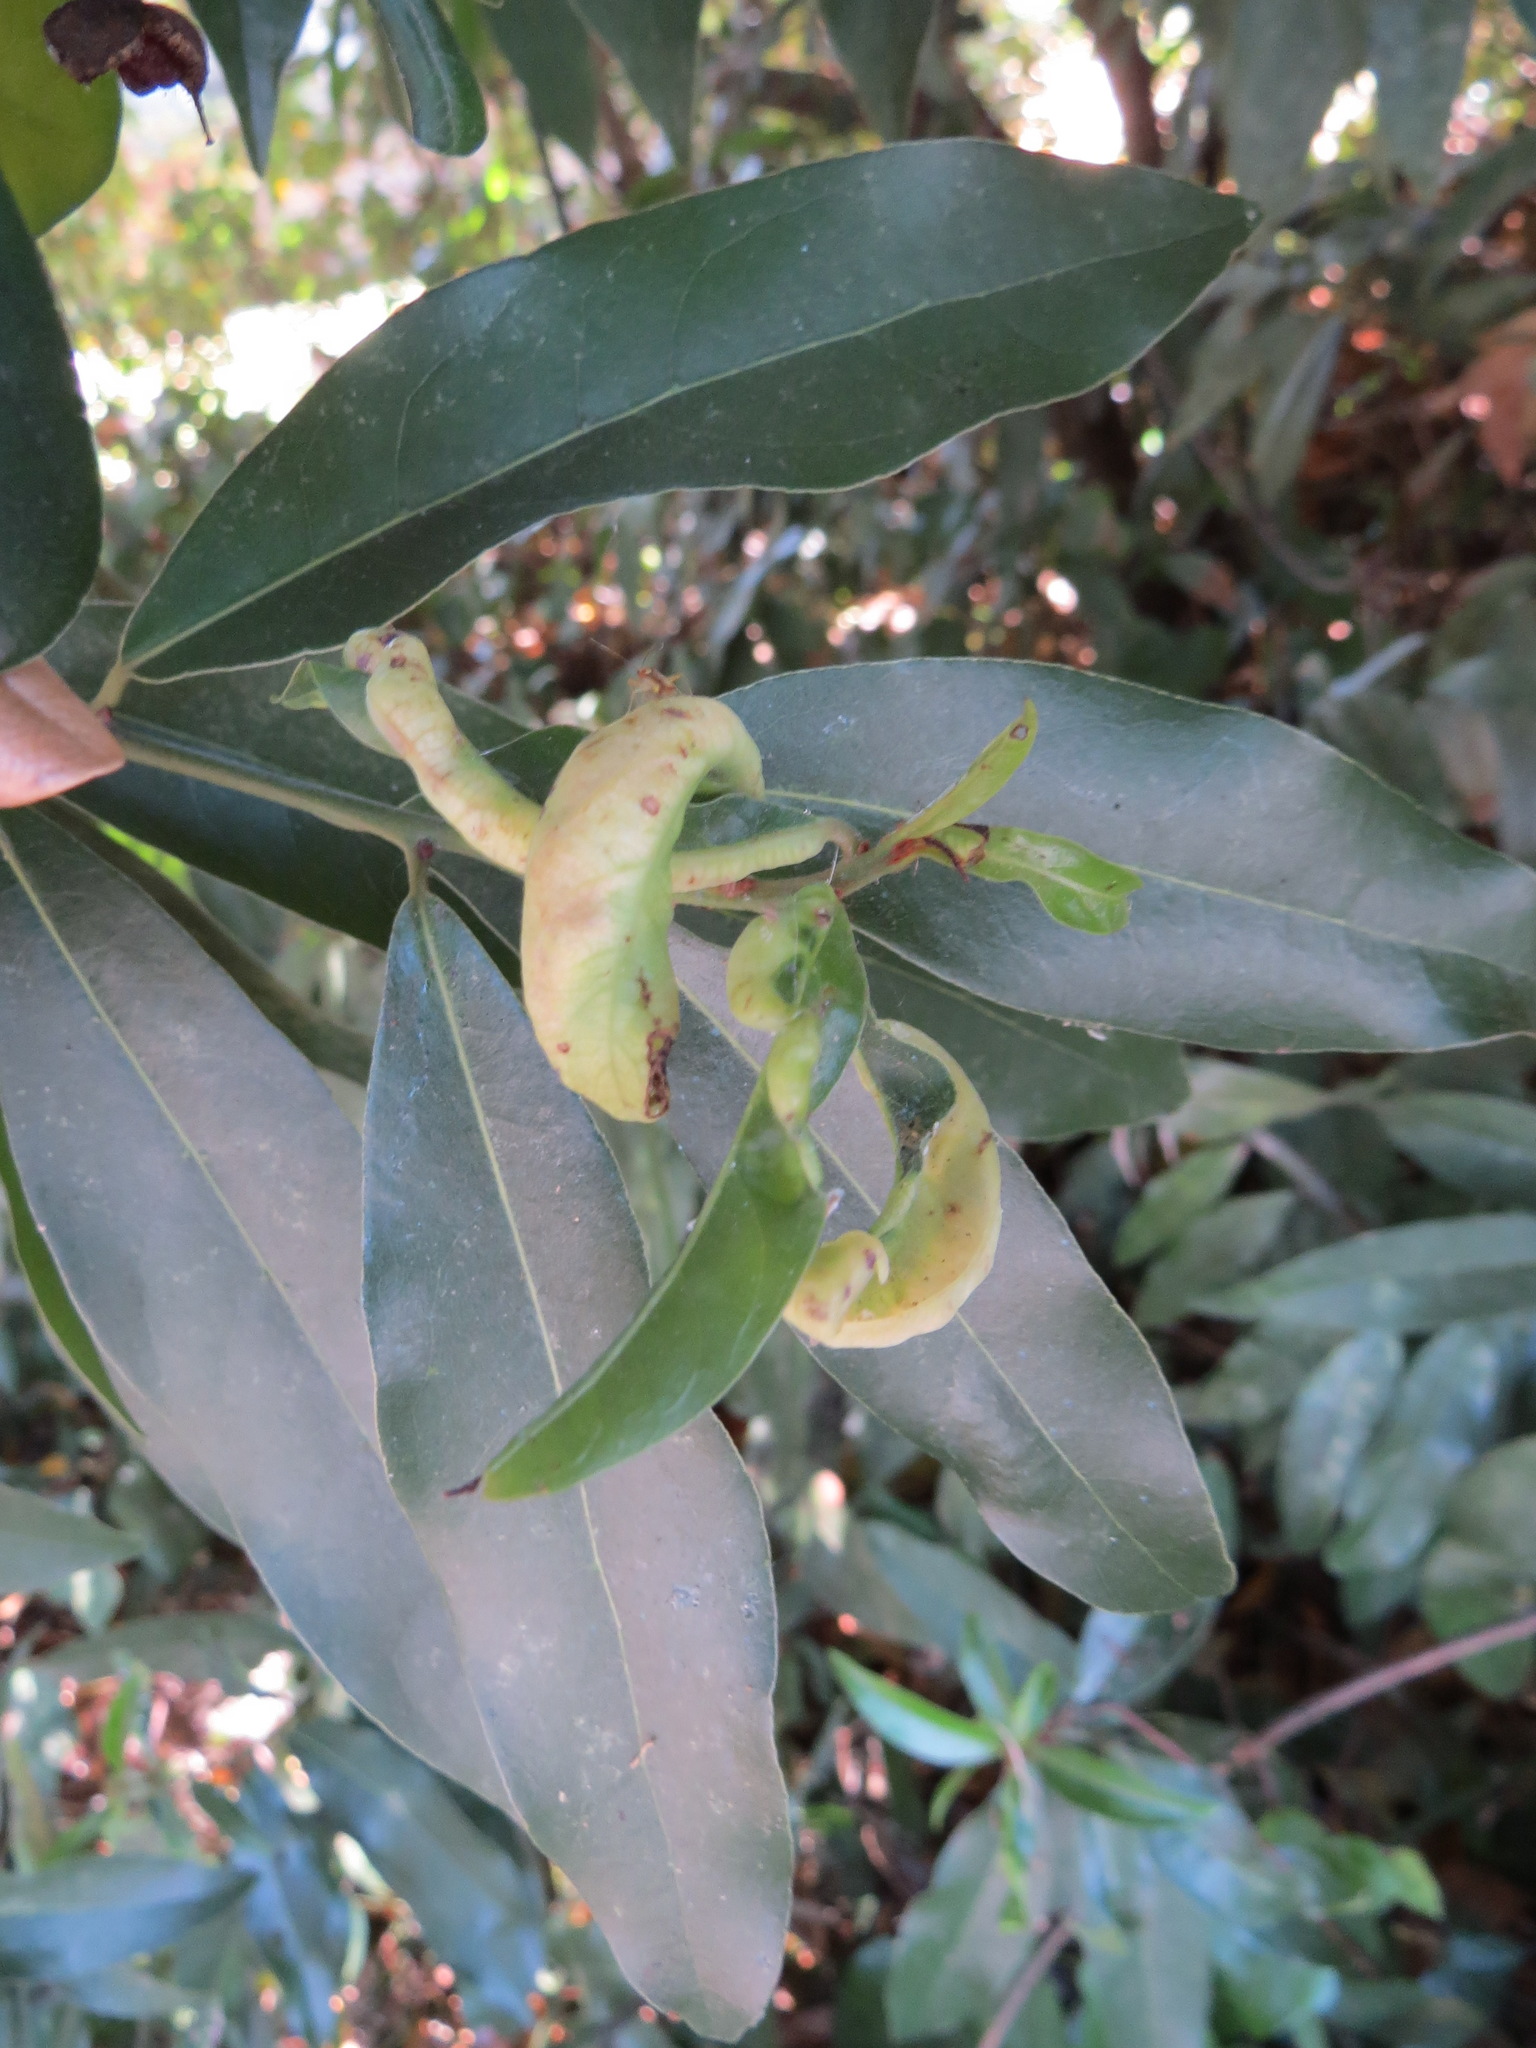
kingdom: Animalia
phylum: Arthropoda
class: Insecta
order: Hemiptera
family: Triozidae
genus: Lauritrioza
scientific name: Lauritrioza alacris
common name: Laurel psyllid
